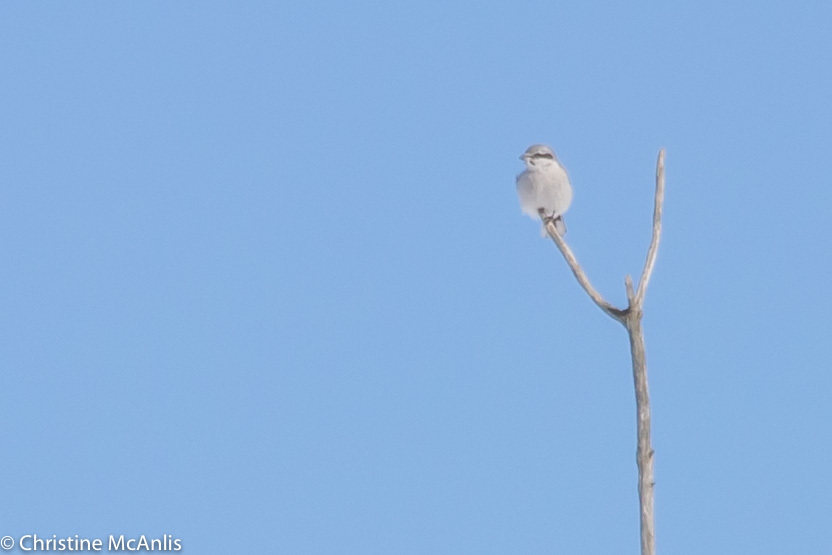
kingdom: Animalia
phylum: Chordata
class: Aves
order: Passeriformes
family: Laniidae
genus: Lanius
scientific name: Lanius borealis
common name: Northern shrike
